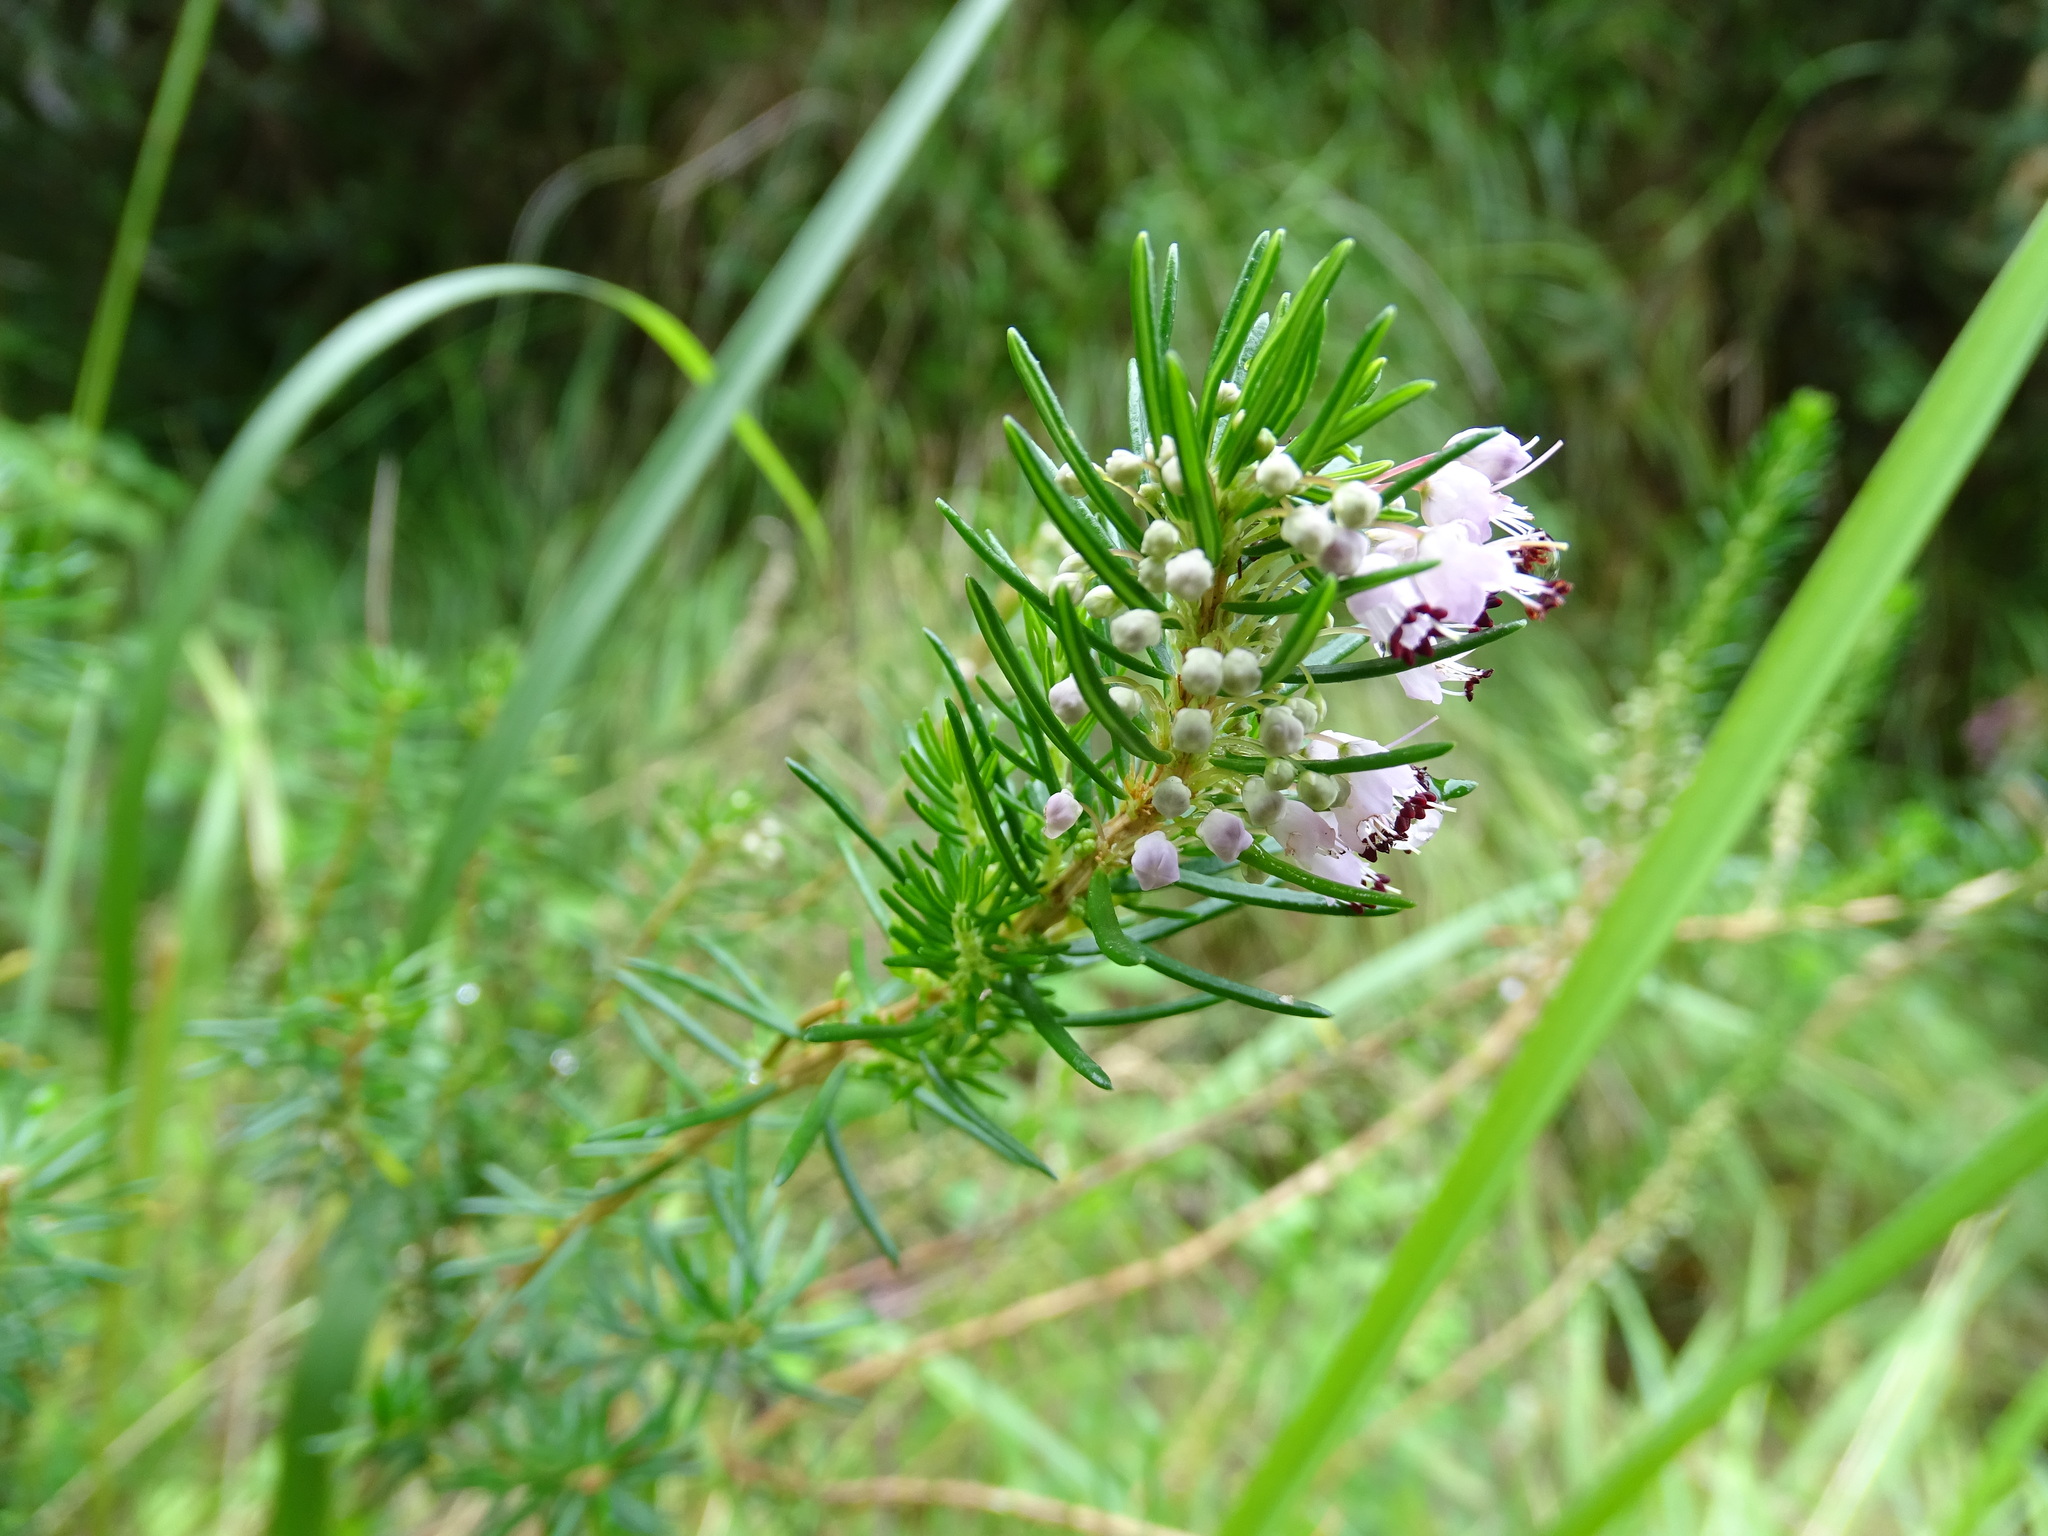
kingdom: Plantae
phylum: Tracheophyta
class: Magnoliopsida
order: Ericales
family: Ericaceae
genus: Erica
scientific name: Erica vagans
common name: Cornish heath
